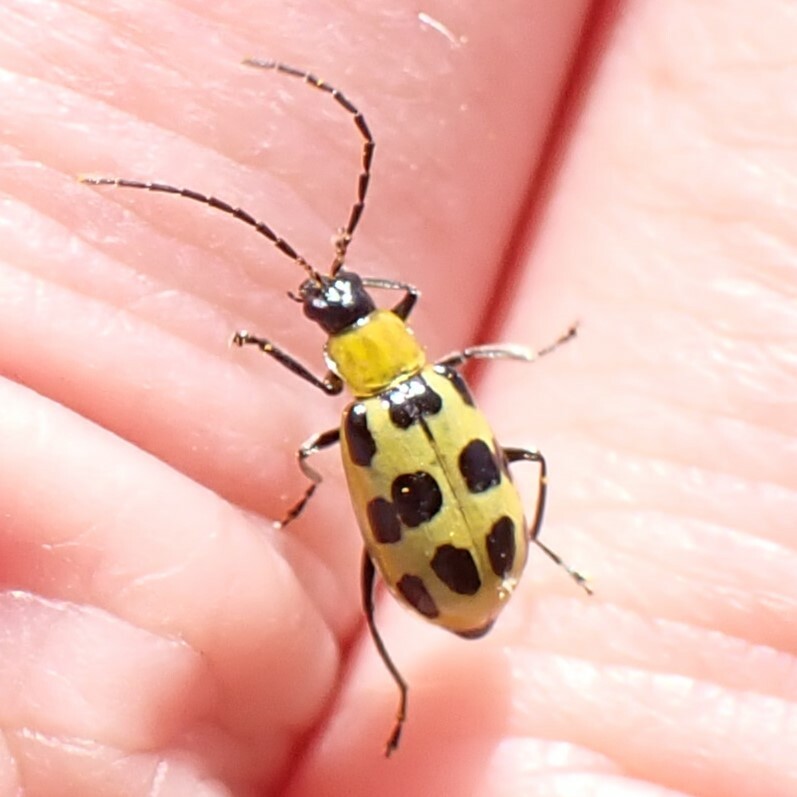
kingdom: Animalia
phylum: Arthropoda
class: Insecta
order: Coleoptera
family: Chrysomelidae
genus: Diabrotica
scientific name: Diabrotica undecimpunctata
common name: Spotted cucumber beetle
